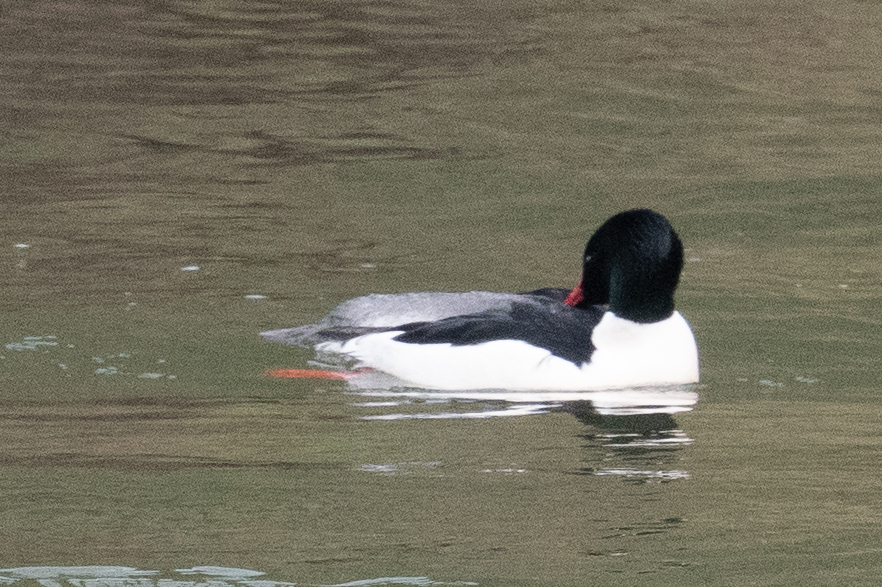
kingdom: Animalia
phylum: Chordata
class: Aves
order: Anseriformes
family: Anatidae
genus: Mergus
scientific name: Mergus merganser
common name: Common merganser
